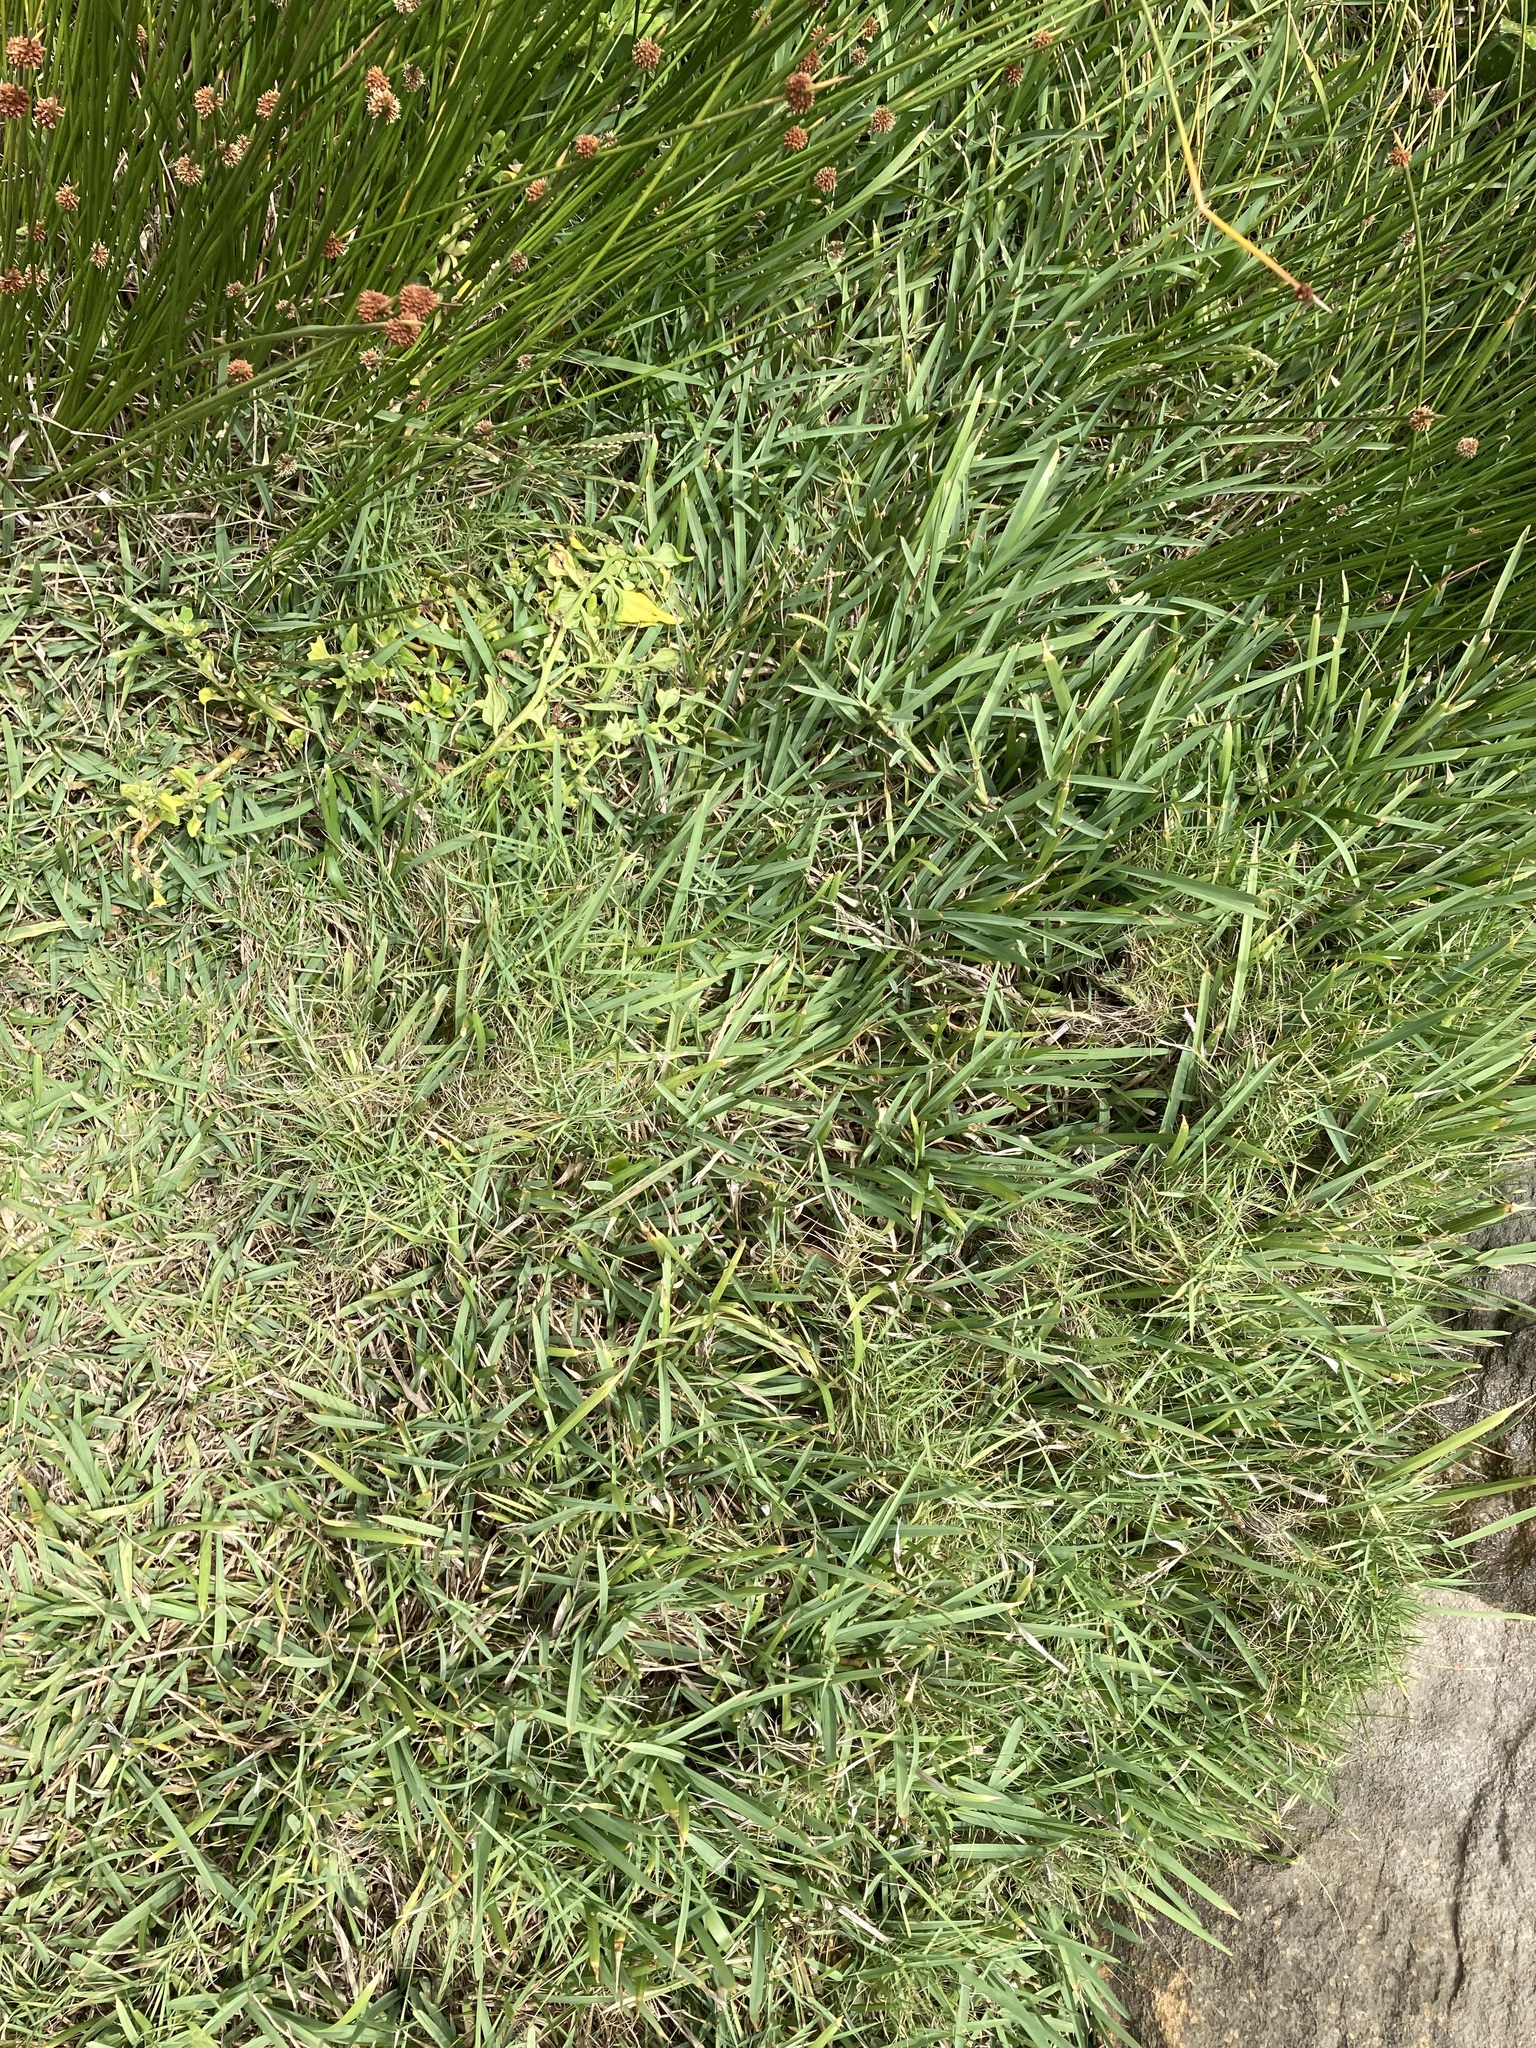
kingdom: Plantae
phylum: Tracheophyta
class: Liliopsida
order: Poales
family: Poaceae
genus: Stenotaphrum
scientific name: Stenotaphrum secundatum
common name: St. augustine grass
